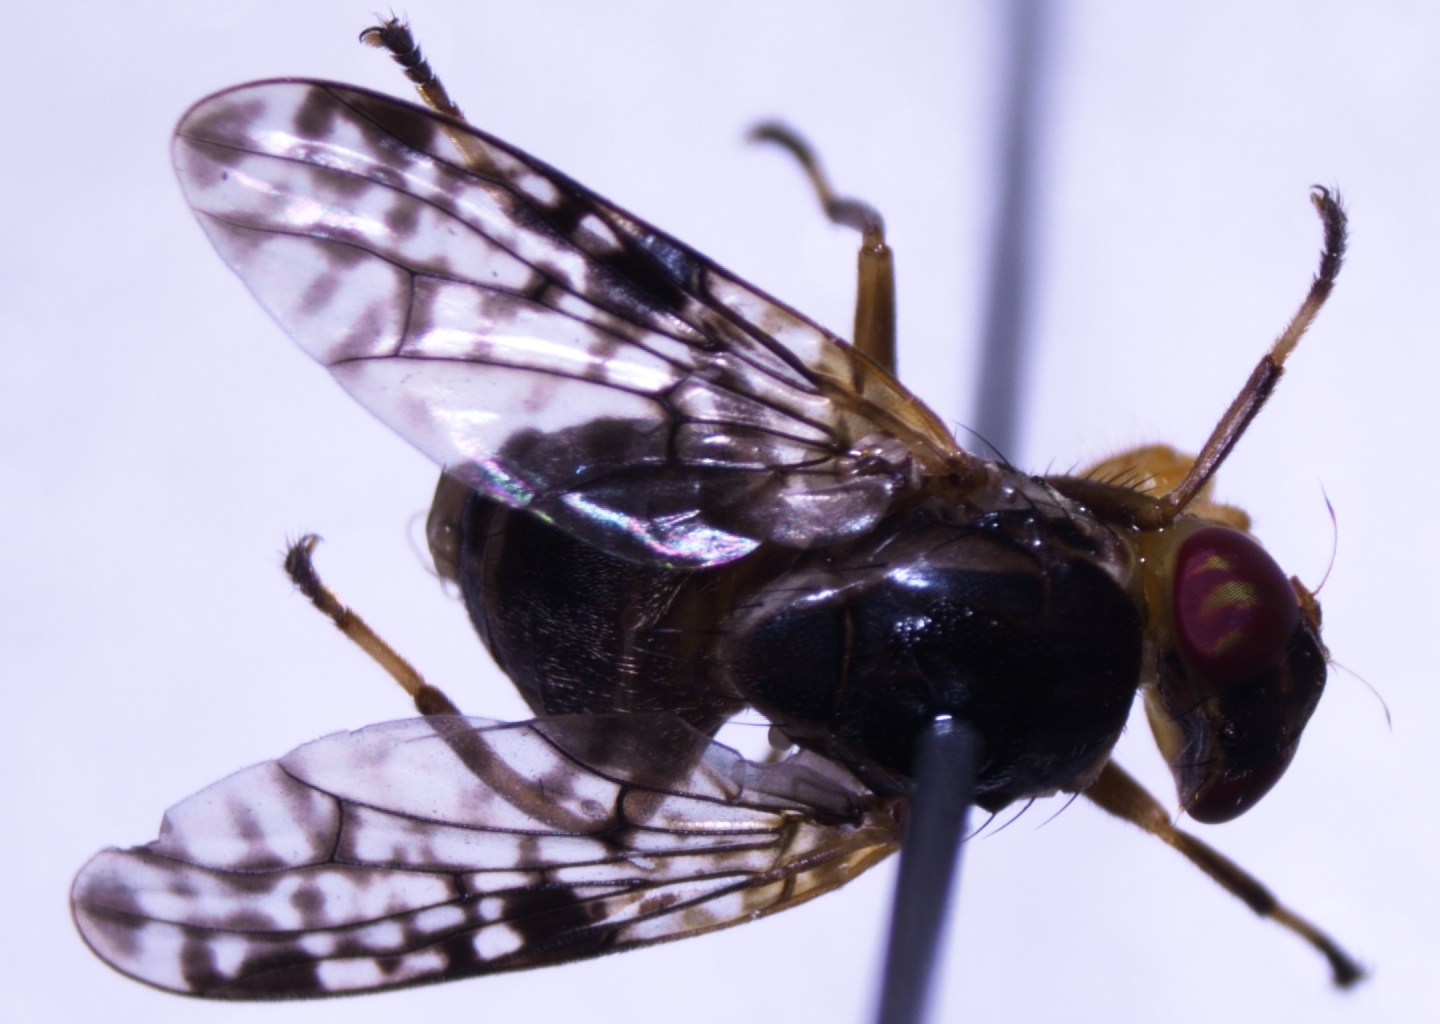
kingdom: Animalia
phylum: Arthropoda
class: Insecta
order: Diptera
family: Platystomatidae
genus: Scholastes
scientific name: Scholastes lonchifer
